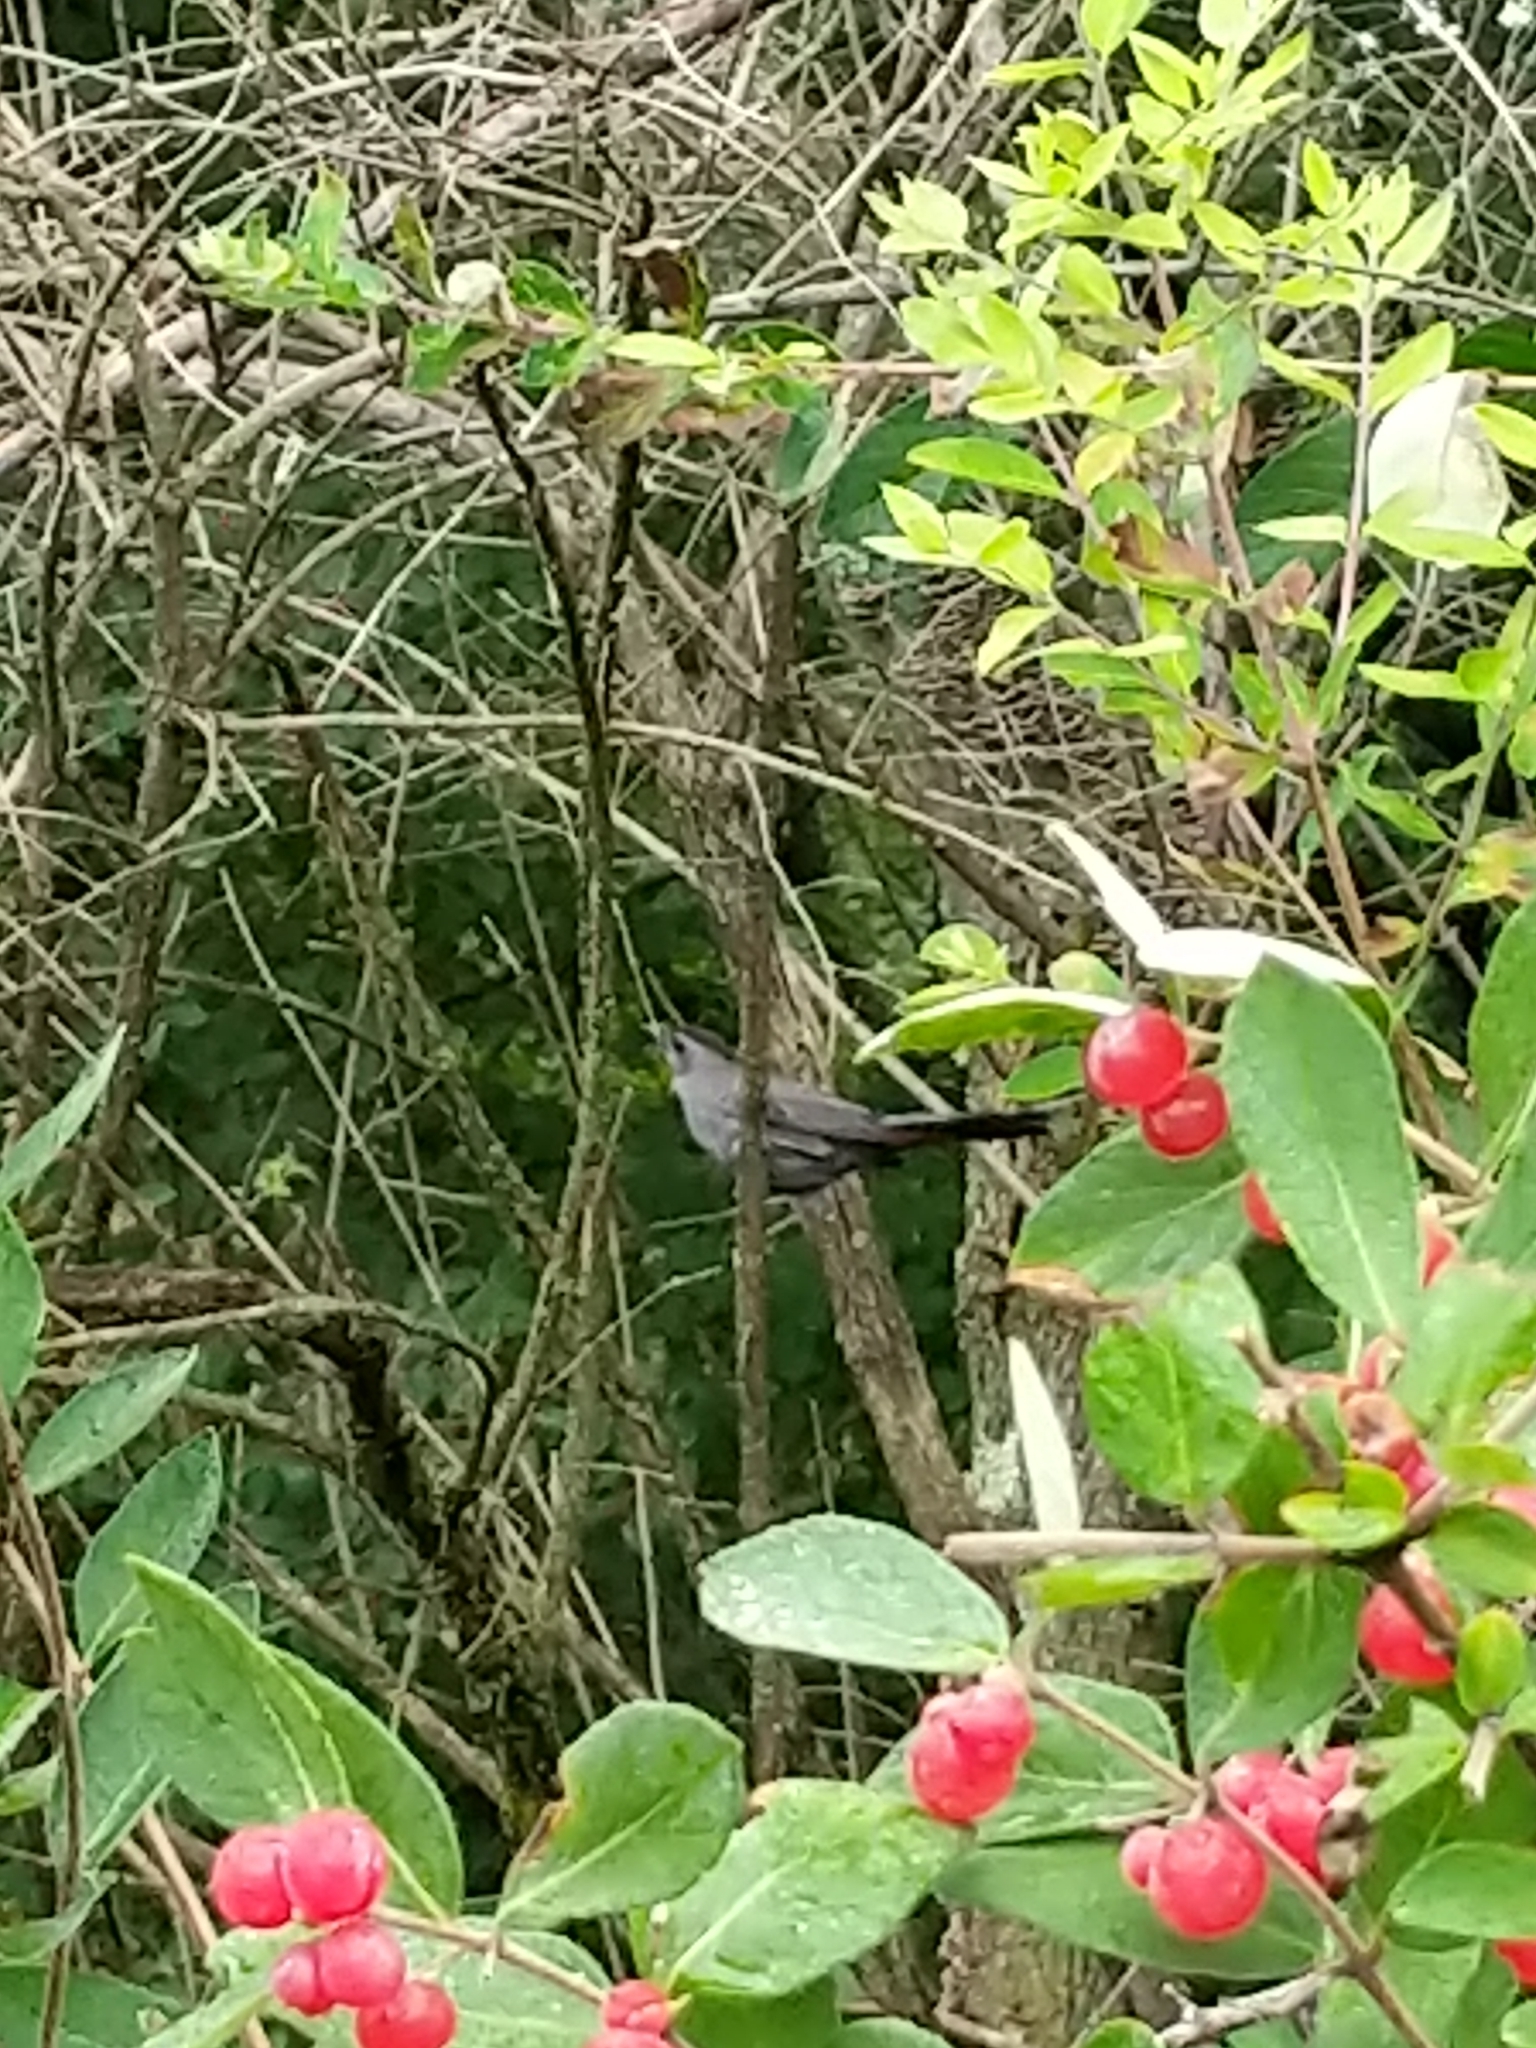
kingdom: Animalia
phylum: Chordata
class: Aves
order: Passeriformes
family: Mimidae
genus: Dumetella
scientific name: Dumetella carolinensis
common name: Gray catbird
